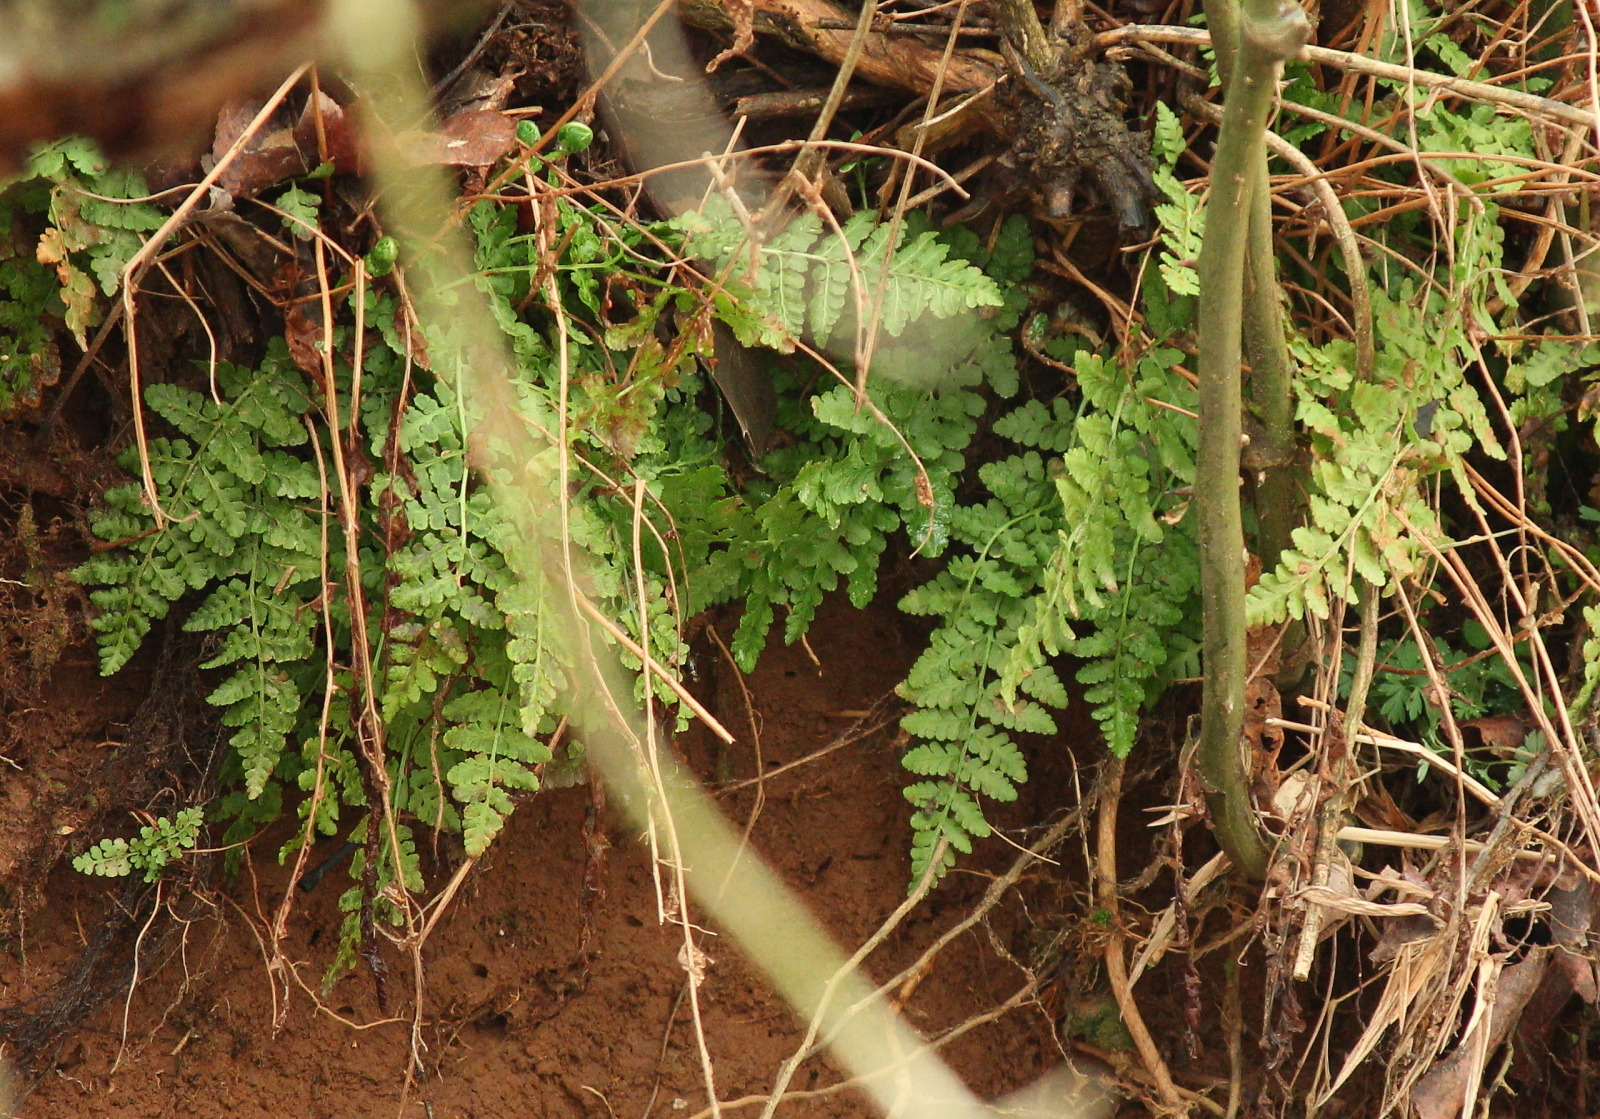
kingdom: Plantae
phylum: Tracheophyta
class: Polypodiopsida
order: Polypodiales
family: Woodsiaceae
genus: Physematium
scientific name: Physematium obtusum
